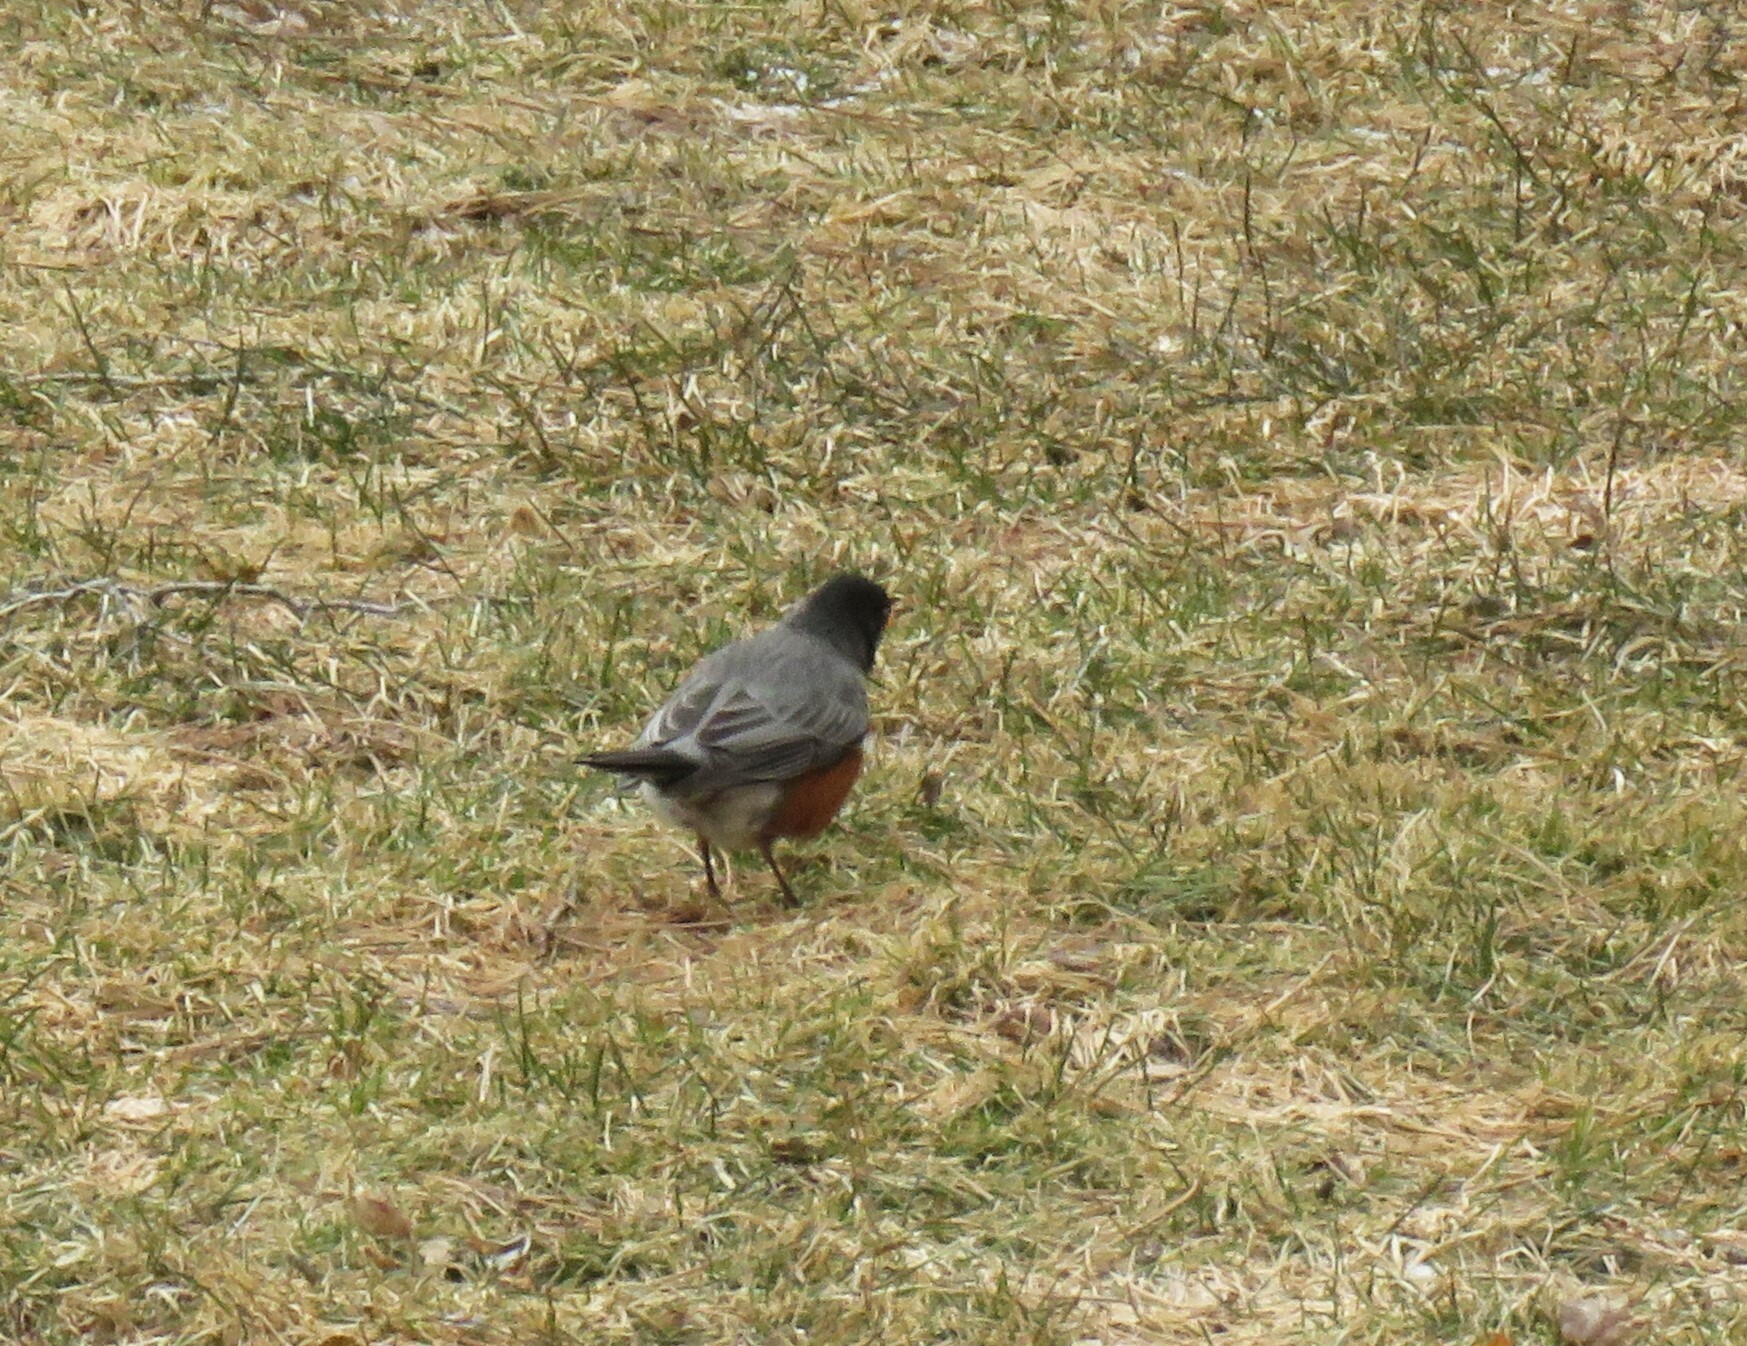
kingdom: Animalia
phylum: Chordata
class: Aves
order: Passeriformes
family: Turdidae
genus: Turdus
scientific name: Turdus migratorius
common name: American robin
